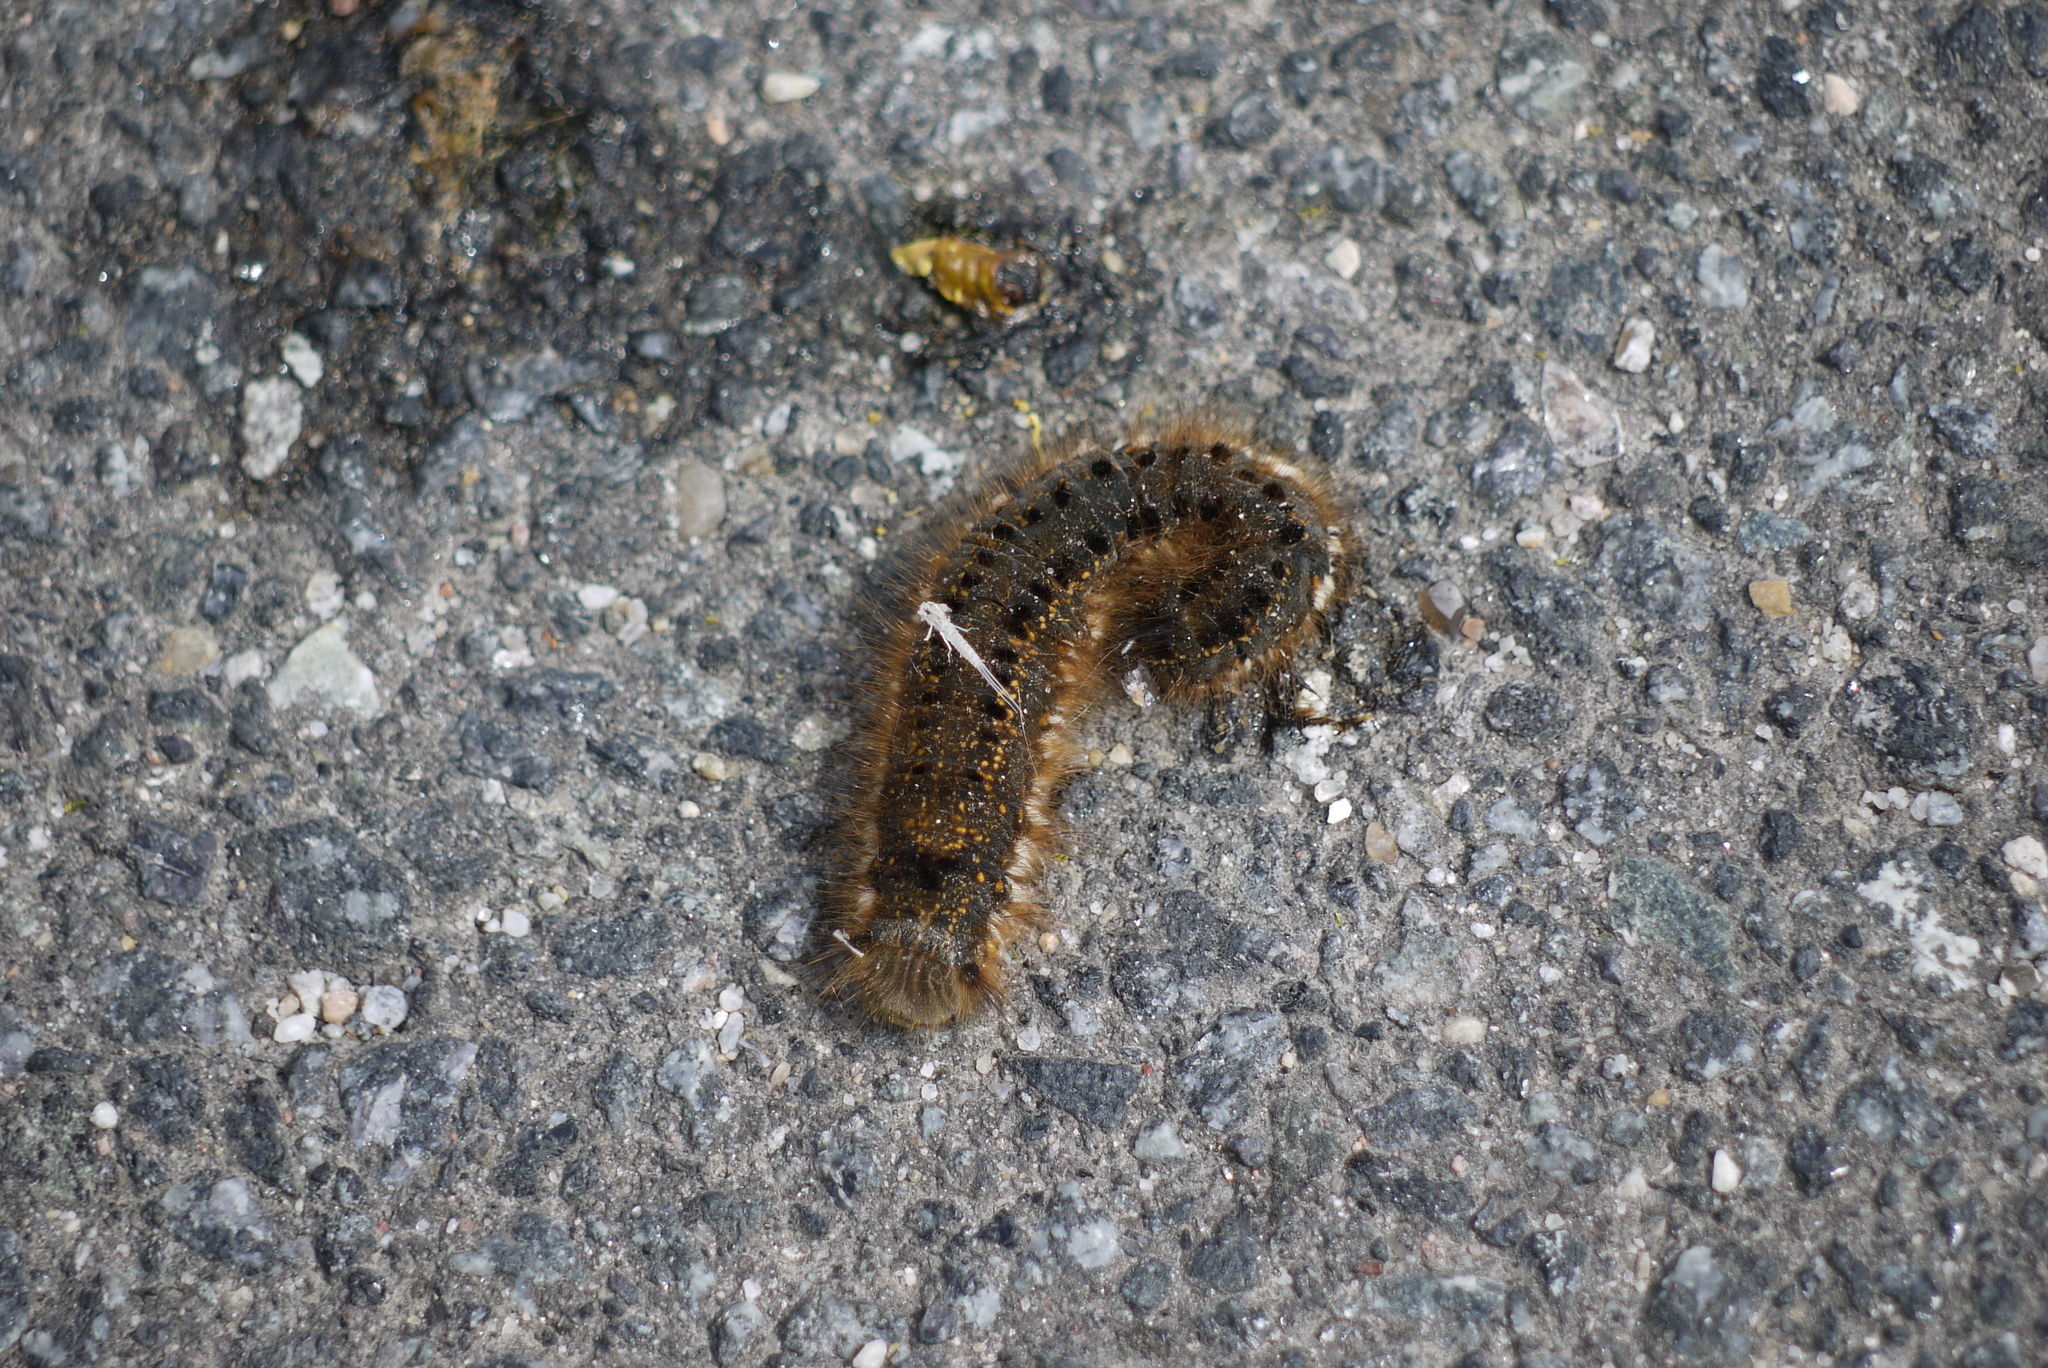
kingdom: Animalia
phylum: Arthropoda
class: Insecta
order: Lepidoptera
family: Lasiocampidae
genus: Euthrix
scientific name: Euthrix potatoria
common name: Drinker
